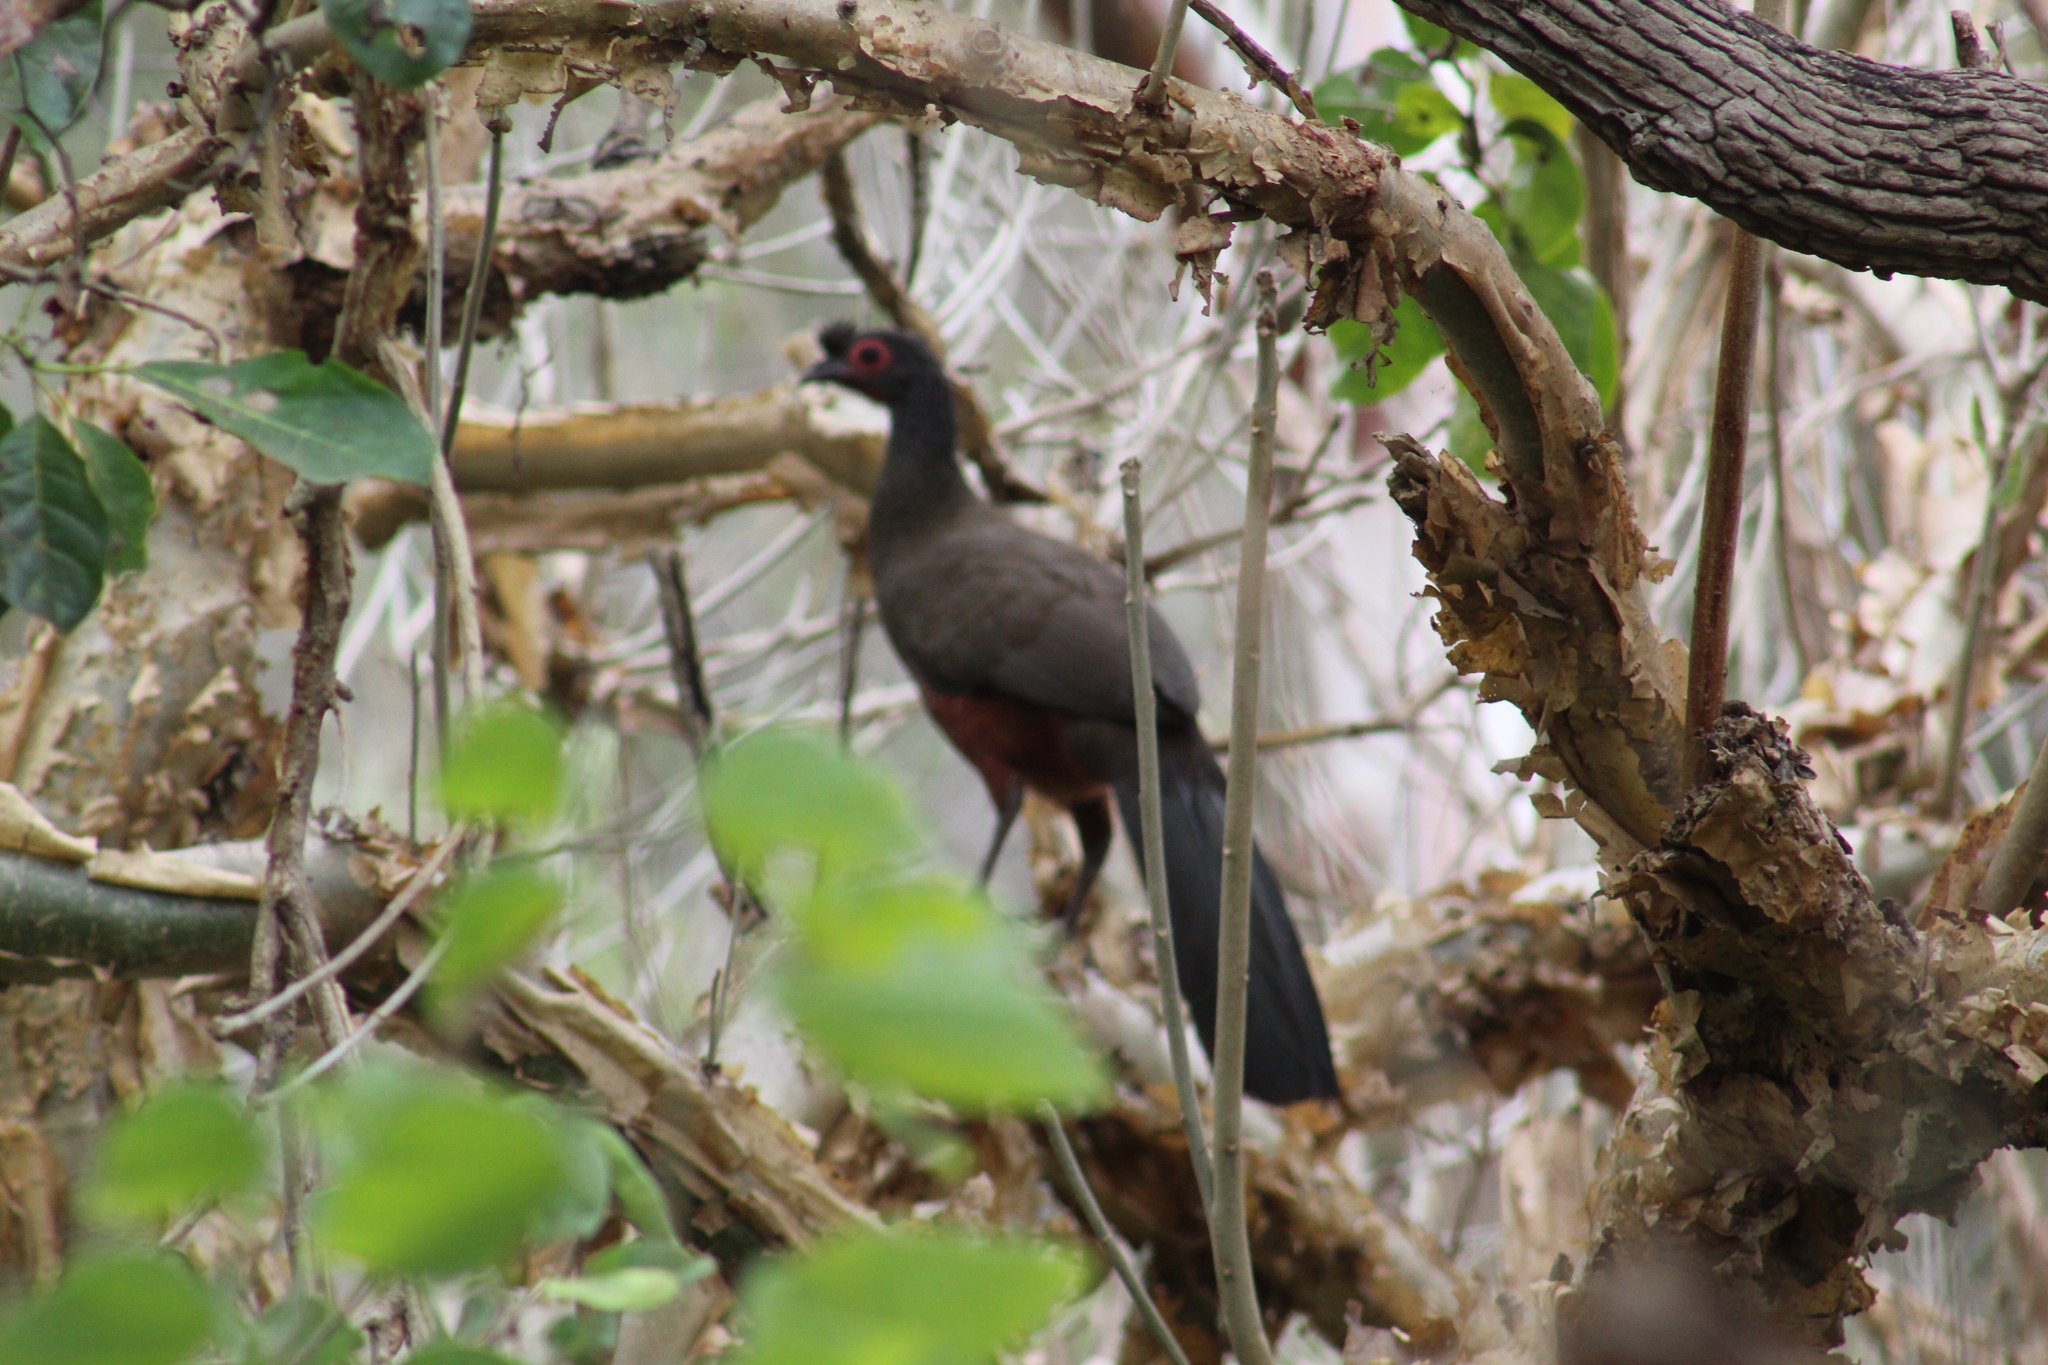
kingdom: Animalia
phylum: Chordata
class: Aves
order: Galliformes
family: Cracidae
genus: Ortalis
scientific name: Ortalis wagleri
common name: Rufous-bellied chachalaca
